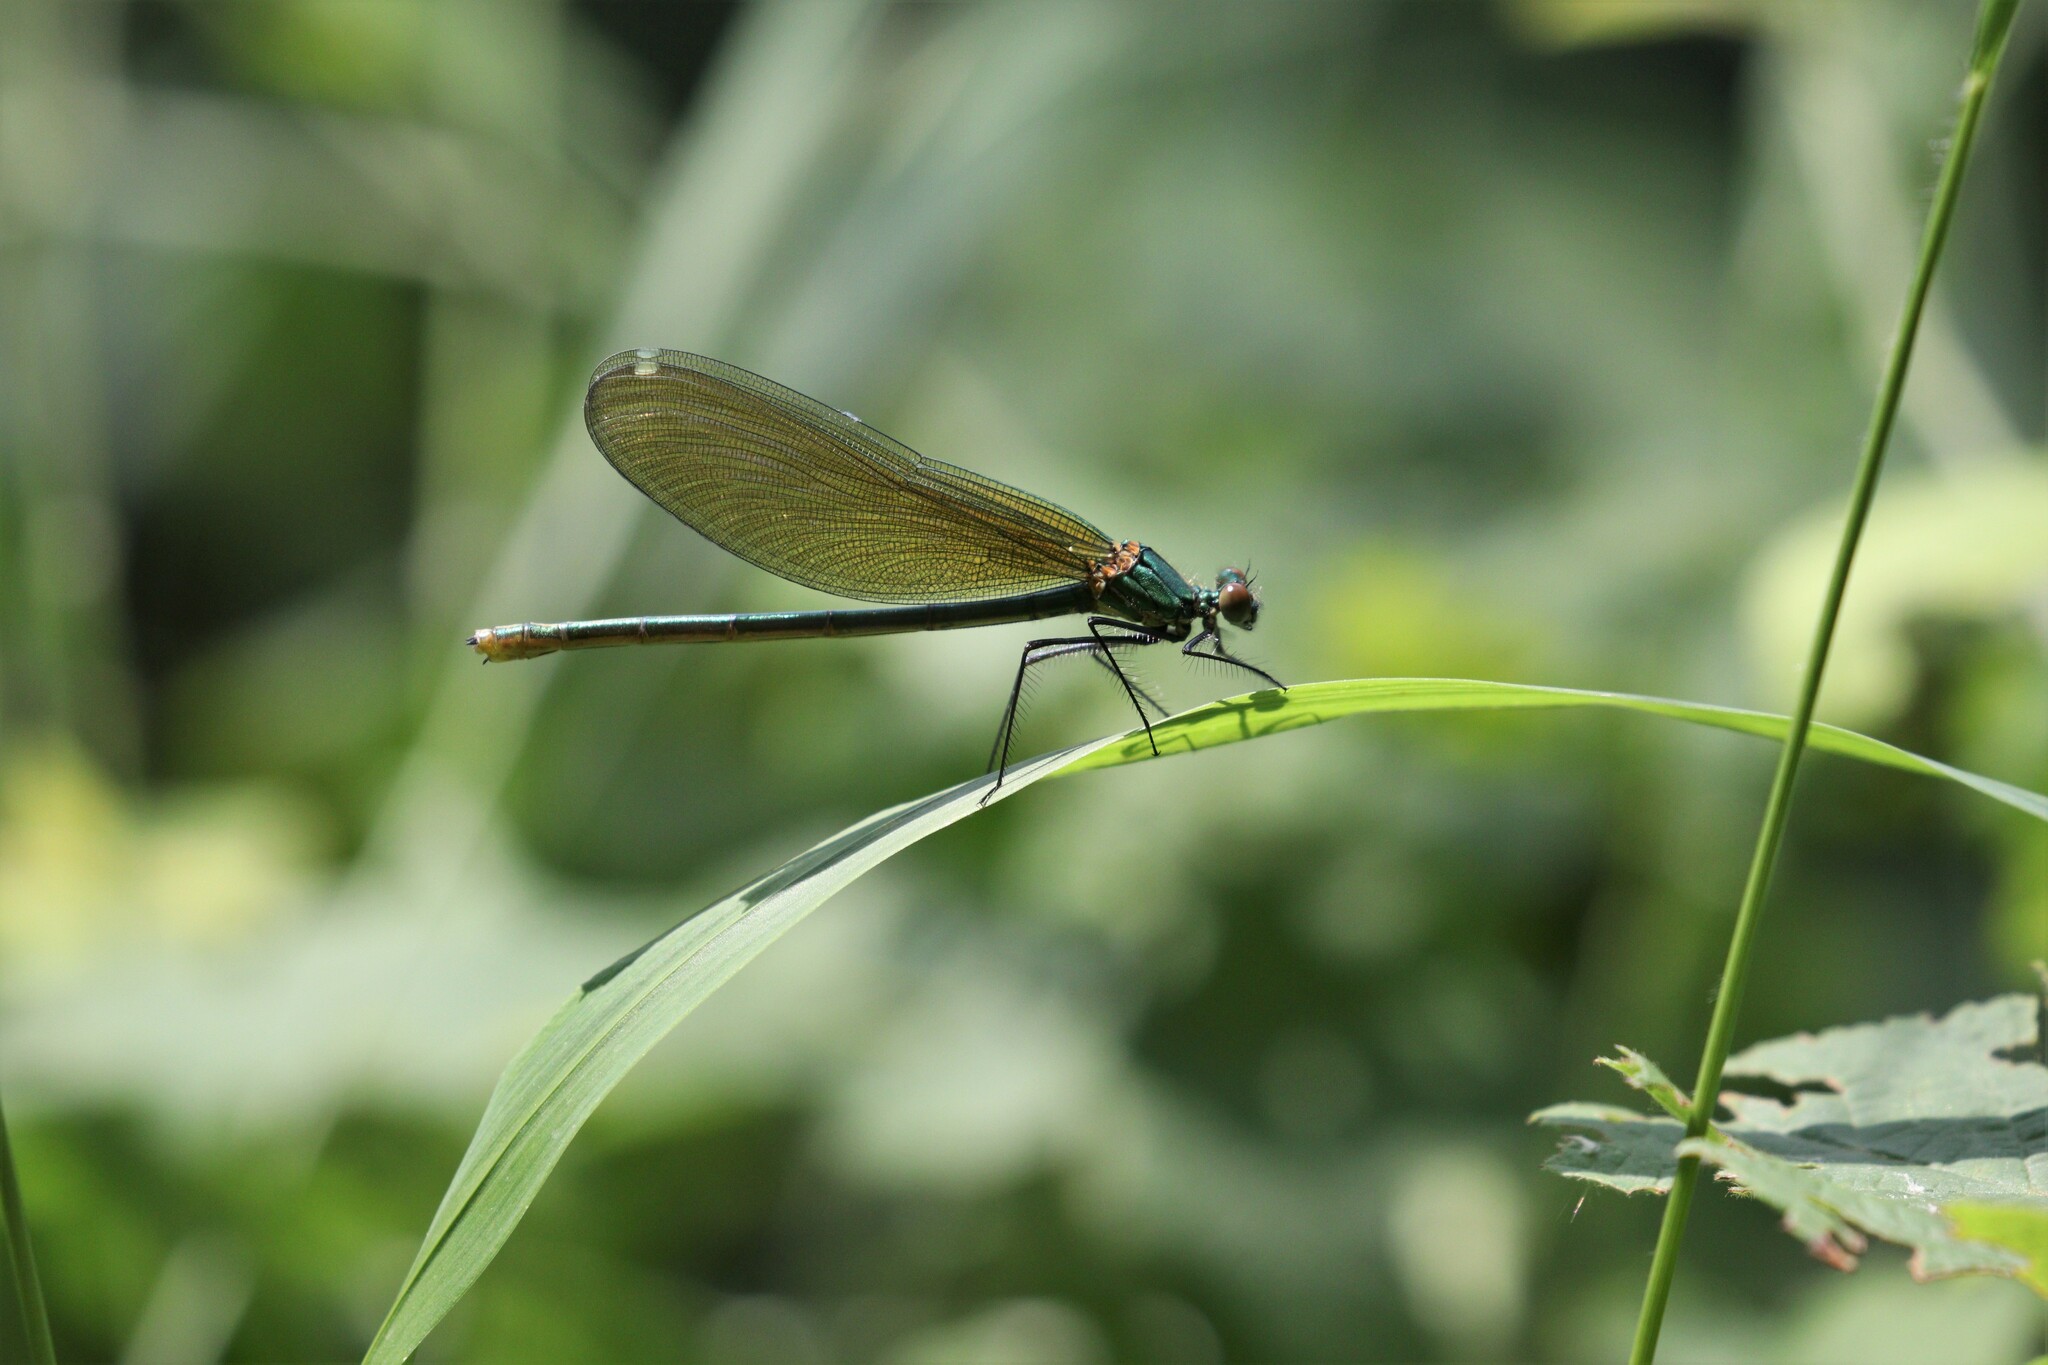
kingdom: Animalia
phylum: Arthropoda
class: Insecta
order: Odonata
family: Calopterygidae
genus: Calopteryx
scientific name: Calopteryx splendens
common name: Banded demoiselle
